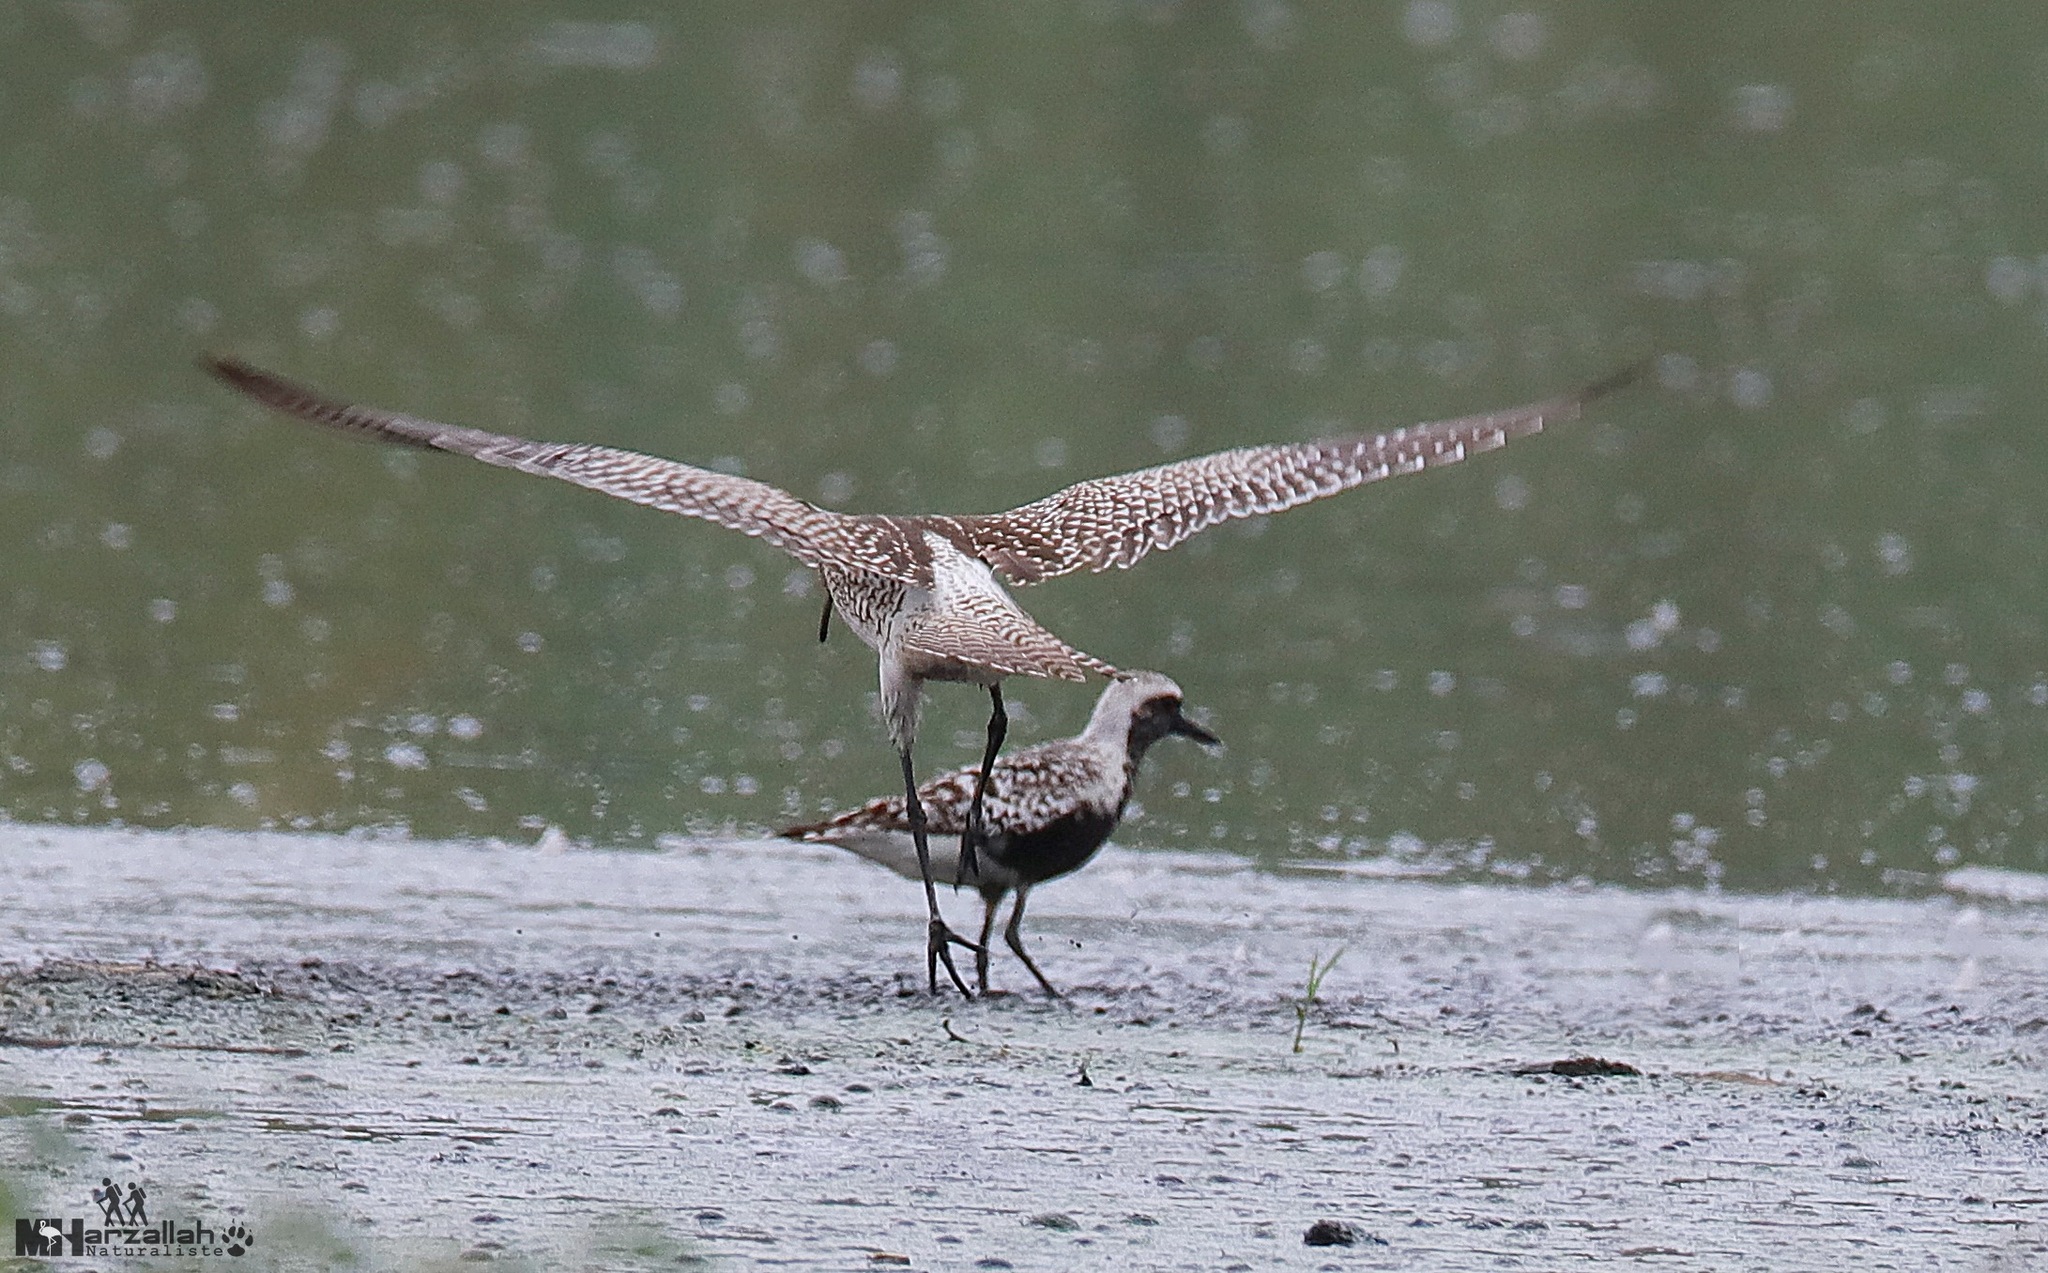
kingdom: Animalia
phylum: Chordata
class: Aves
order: Charadriiformes
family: Charadriidae
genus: Pluvialis
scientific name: Pluvialis squatarola
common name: Grey plover
